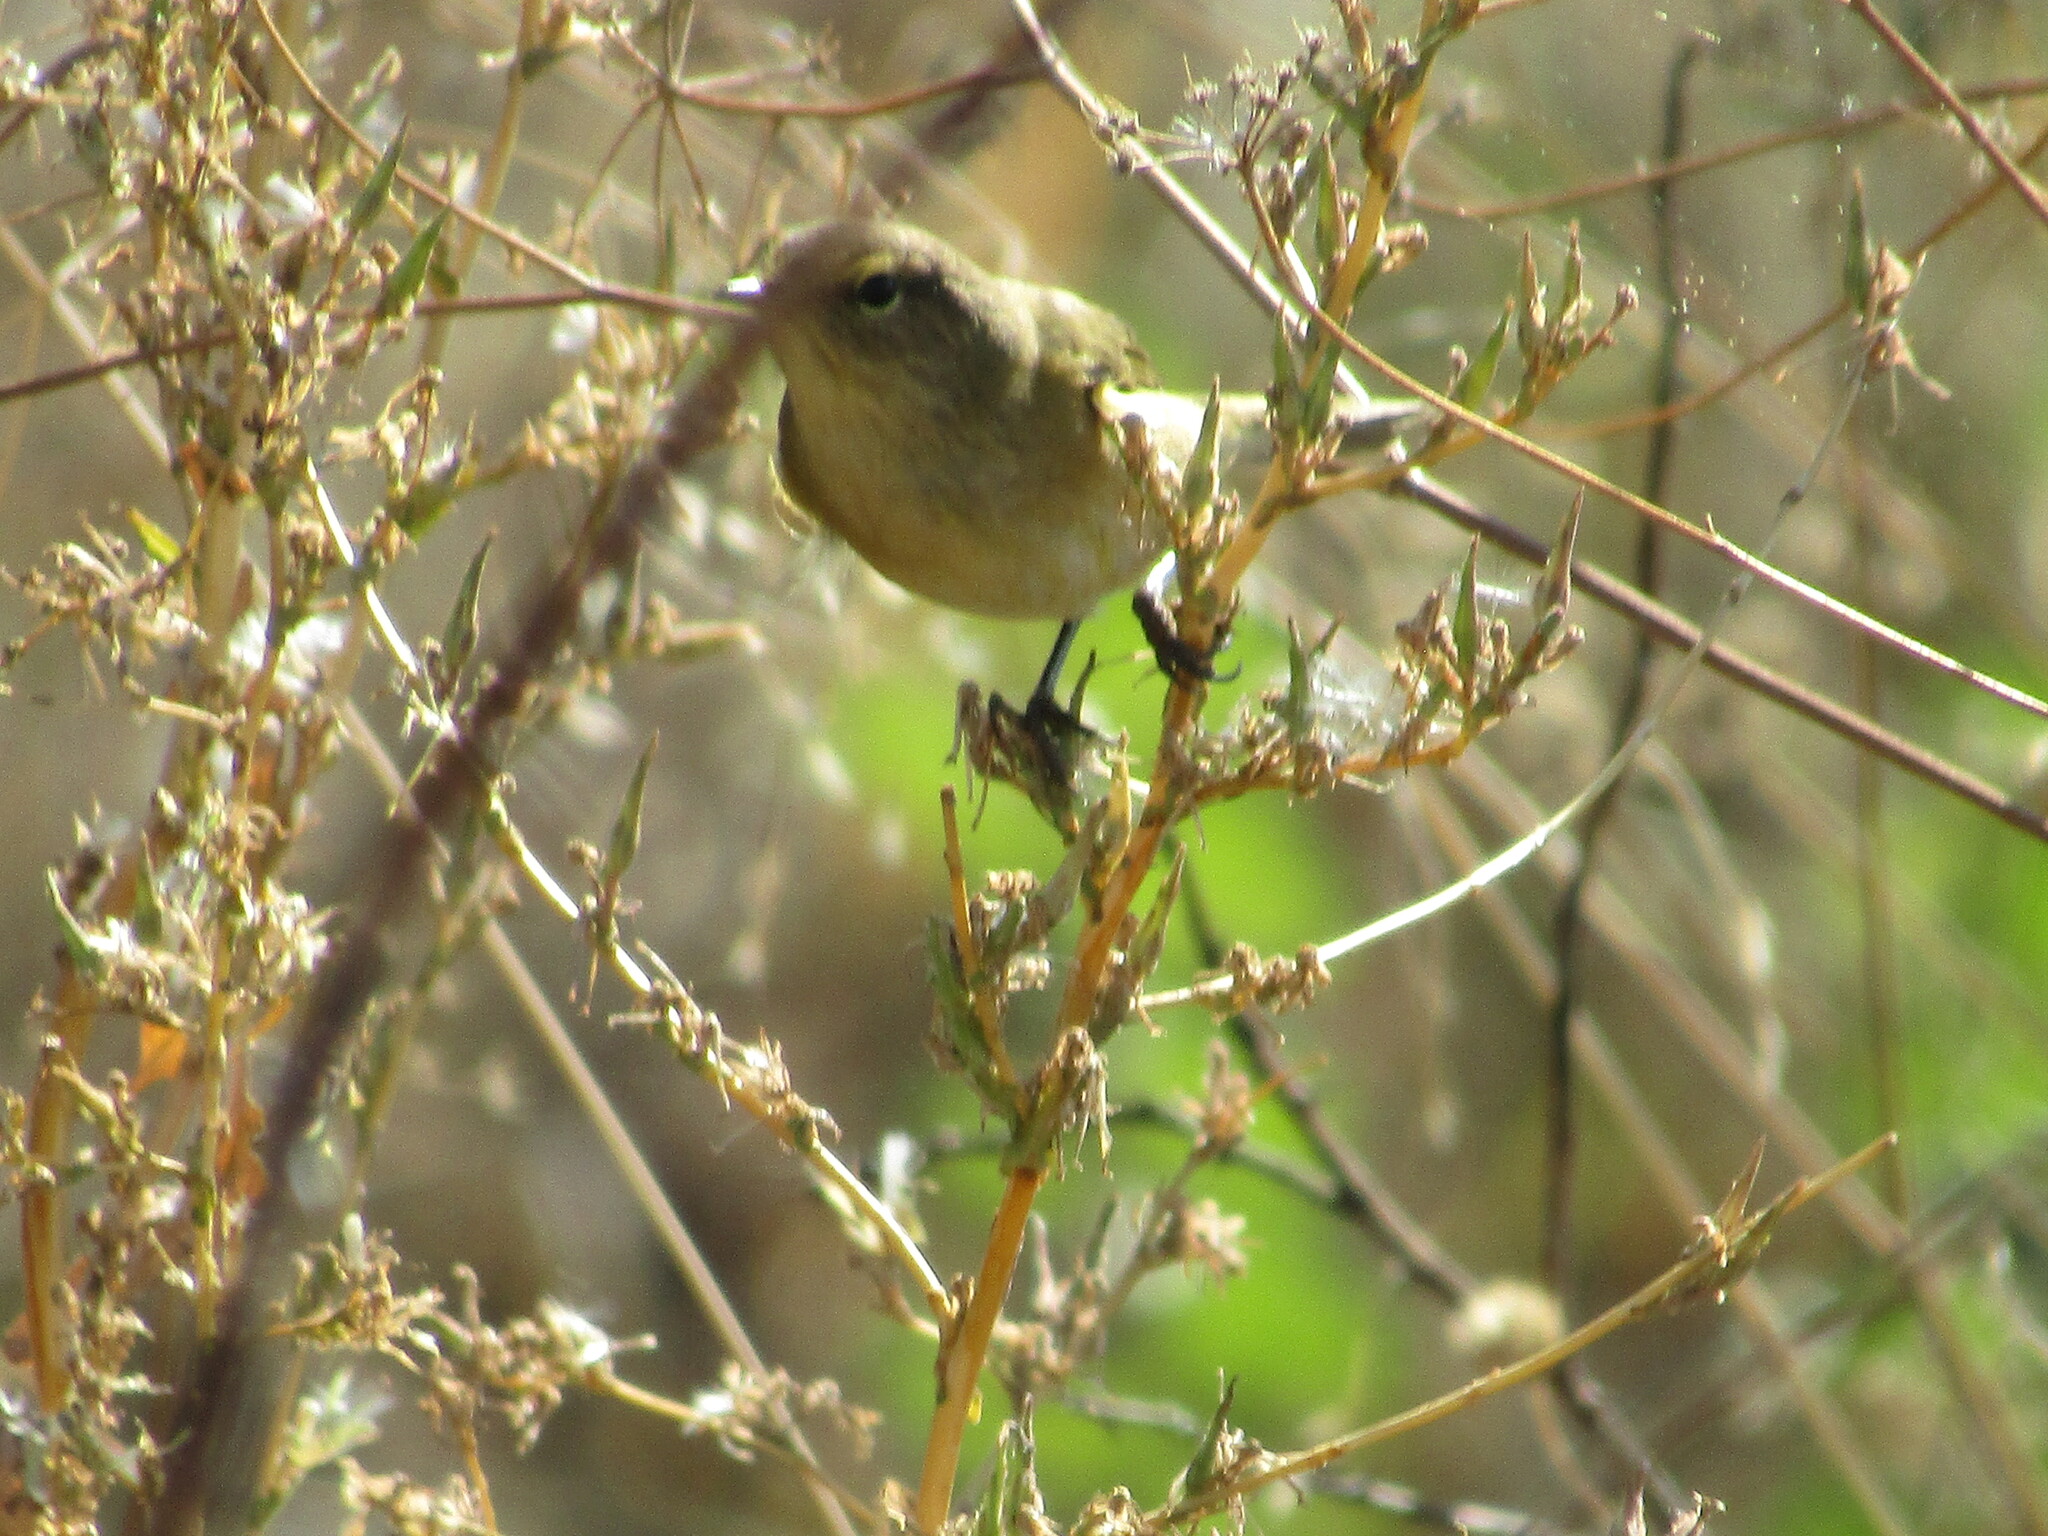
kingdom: Animalia
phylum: Chordata
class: Aves
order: Passeriformes
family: Phylloscopidae
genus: Phylloscopus
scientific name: Phylloscopus collybita
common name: Common chiffchaff
